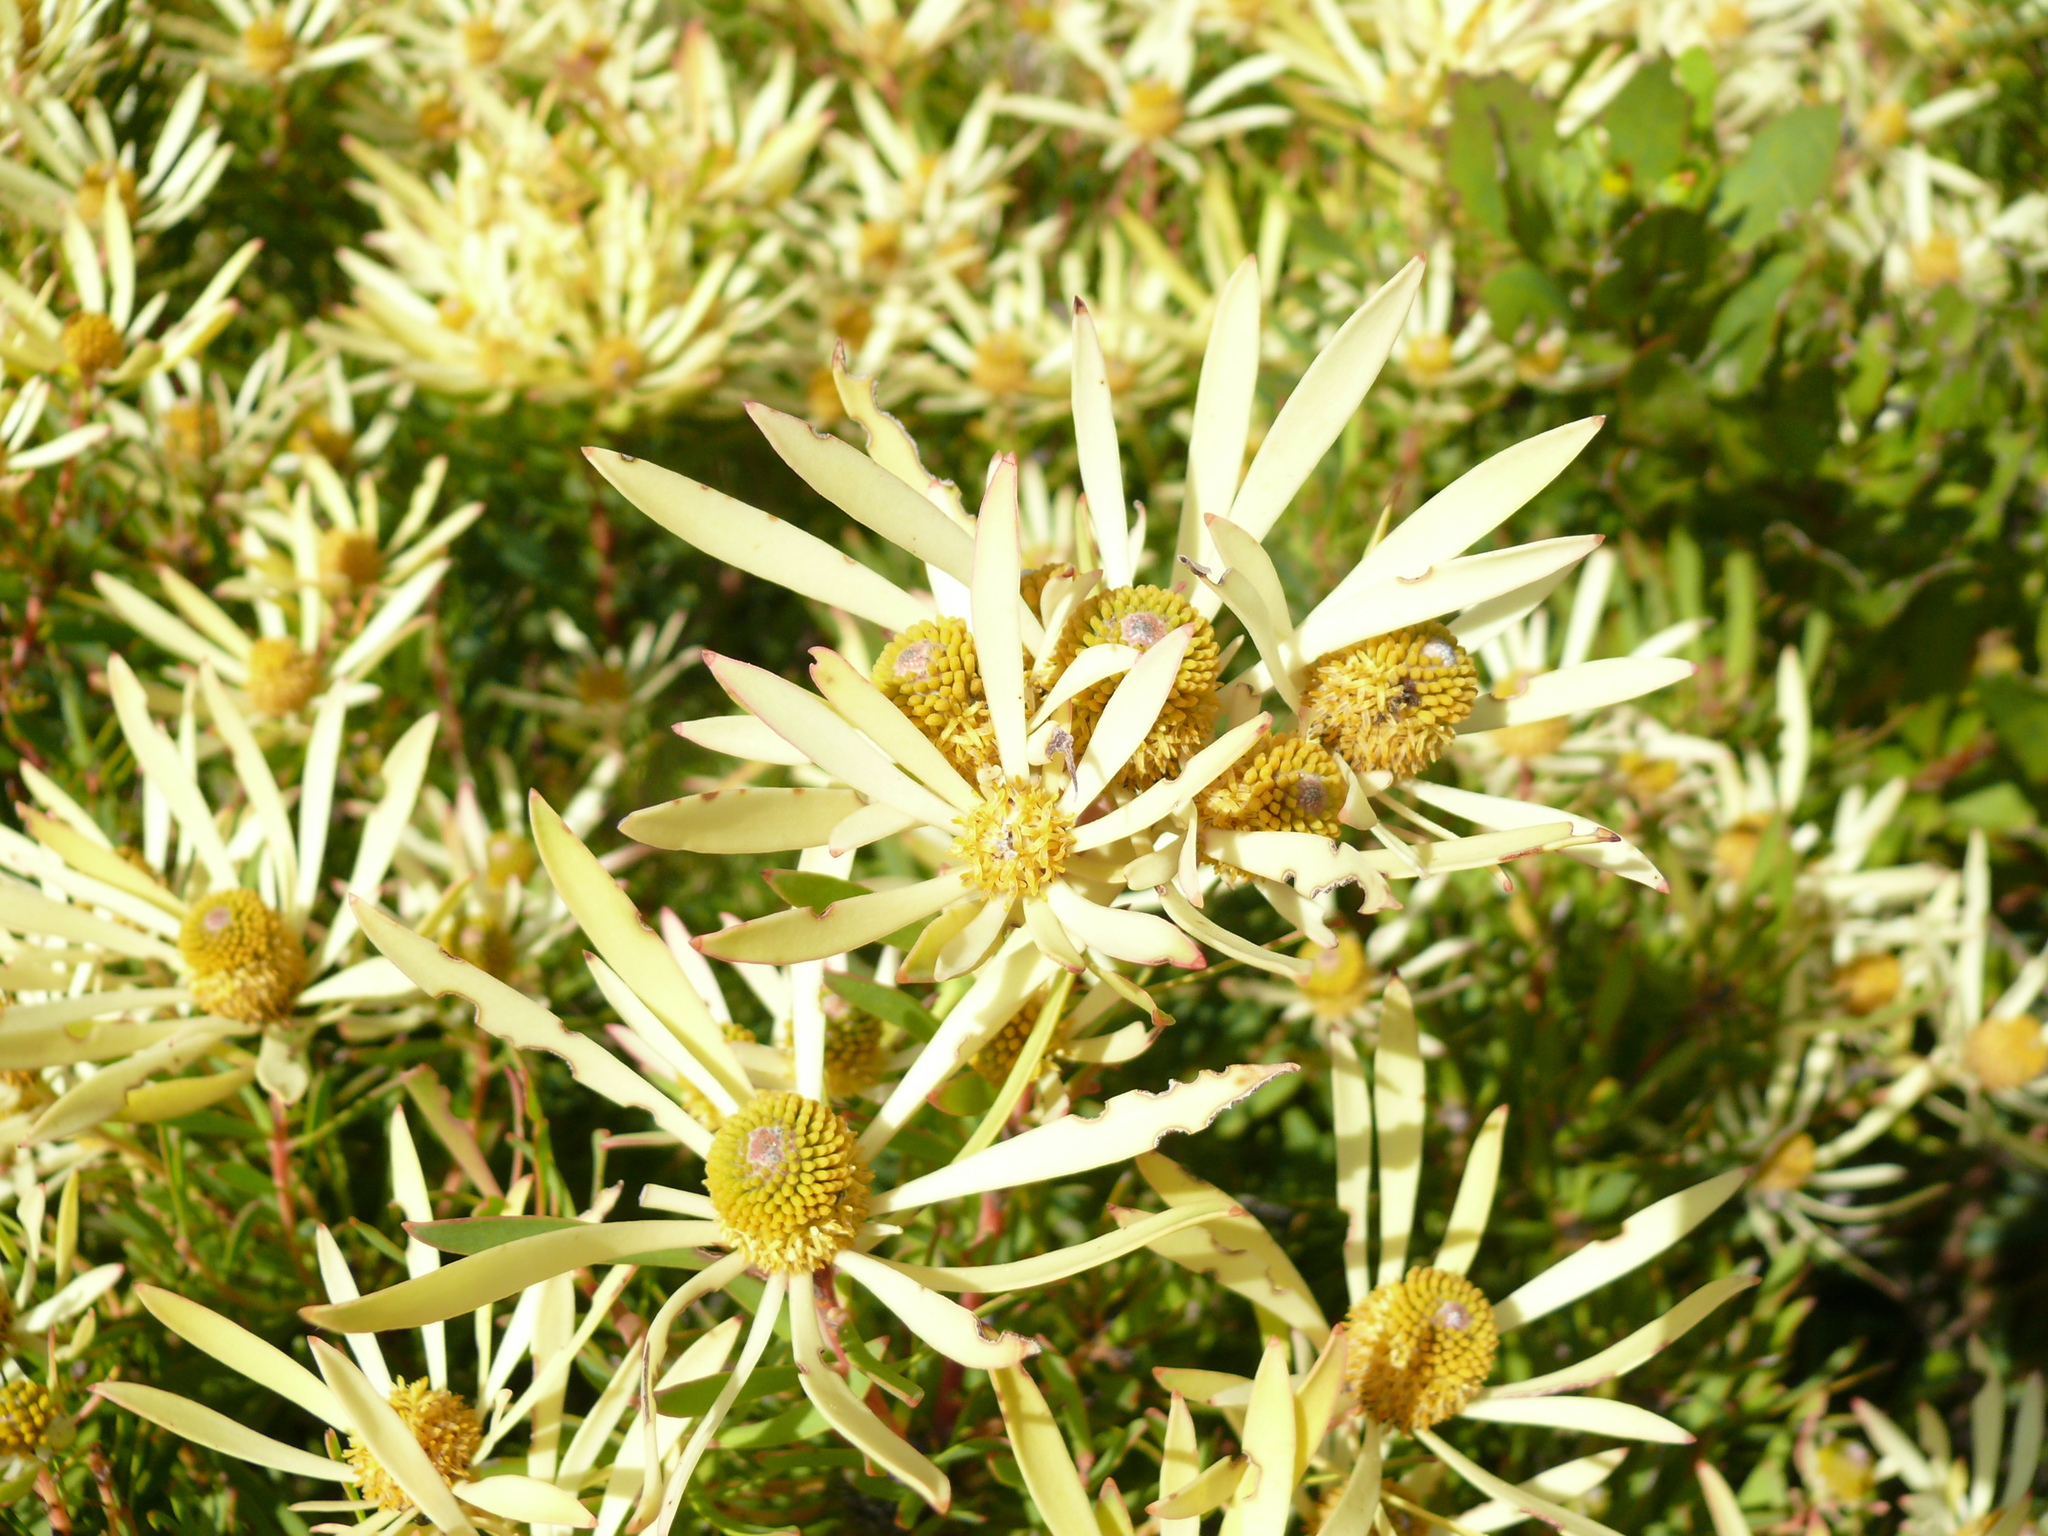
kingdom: Plantae
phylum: Tracheophyta
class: Magnoliopsida
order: Proteales
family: Proteaceae
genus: Leucadendron
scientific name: Leucadendron salignum
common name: Common sunshine conebush
